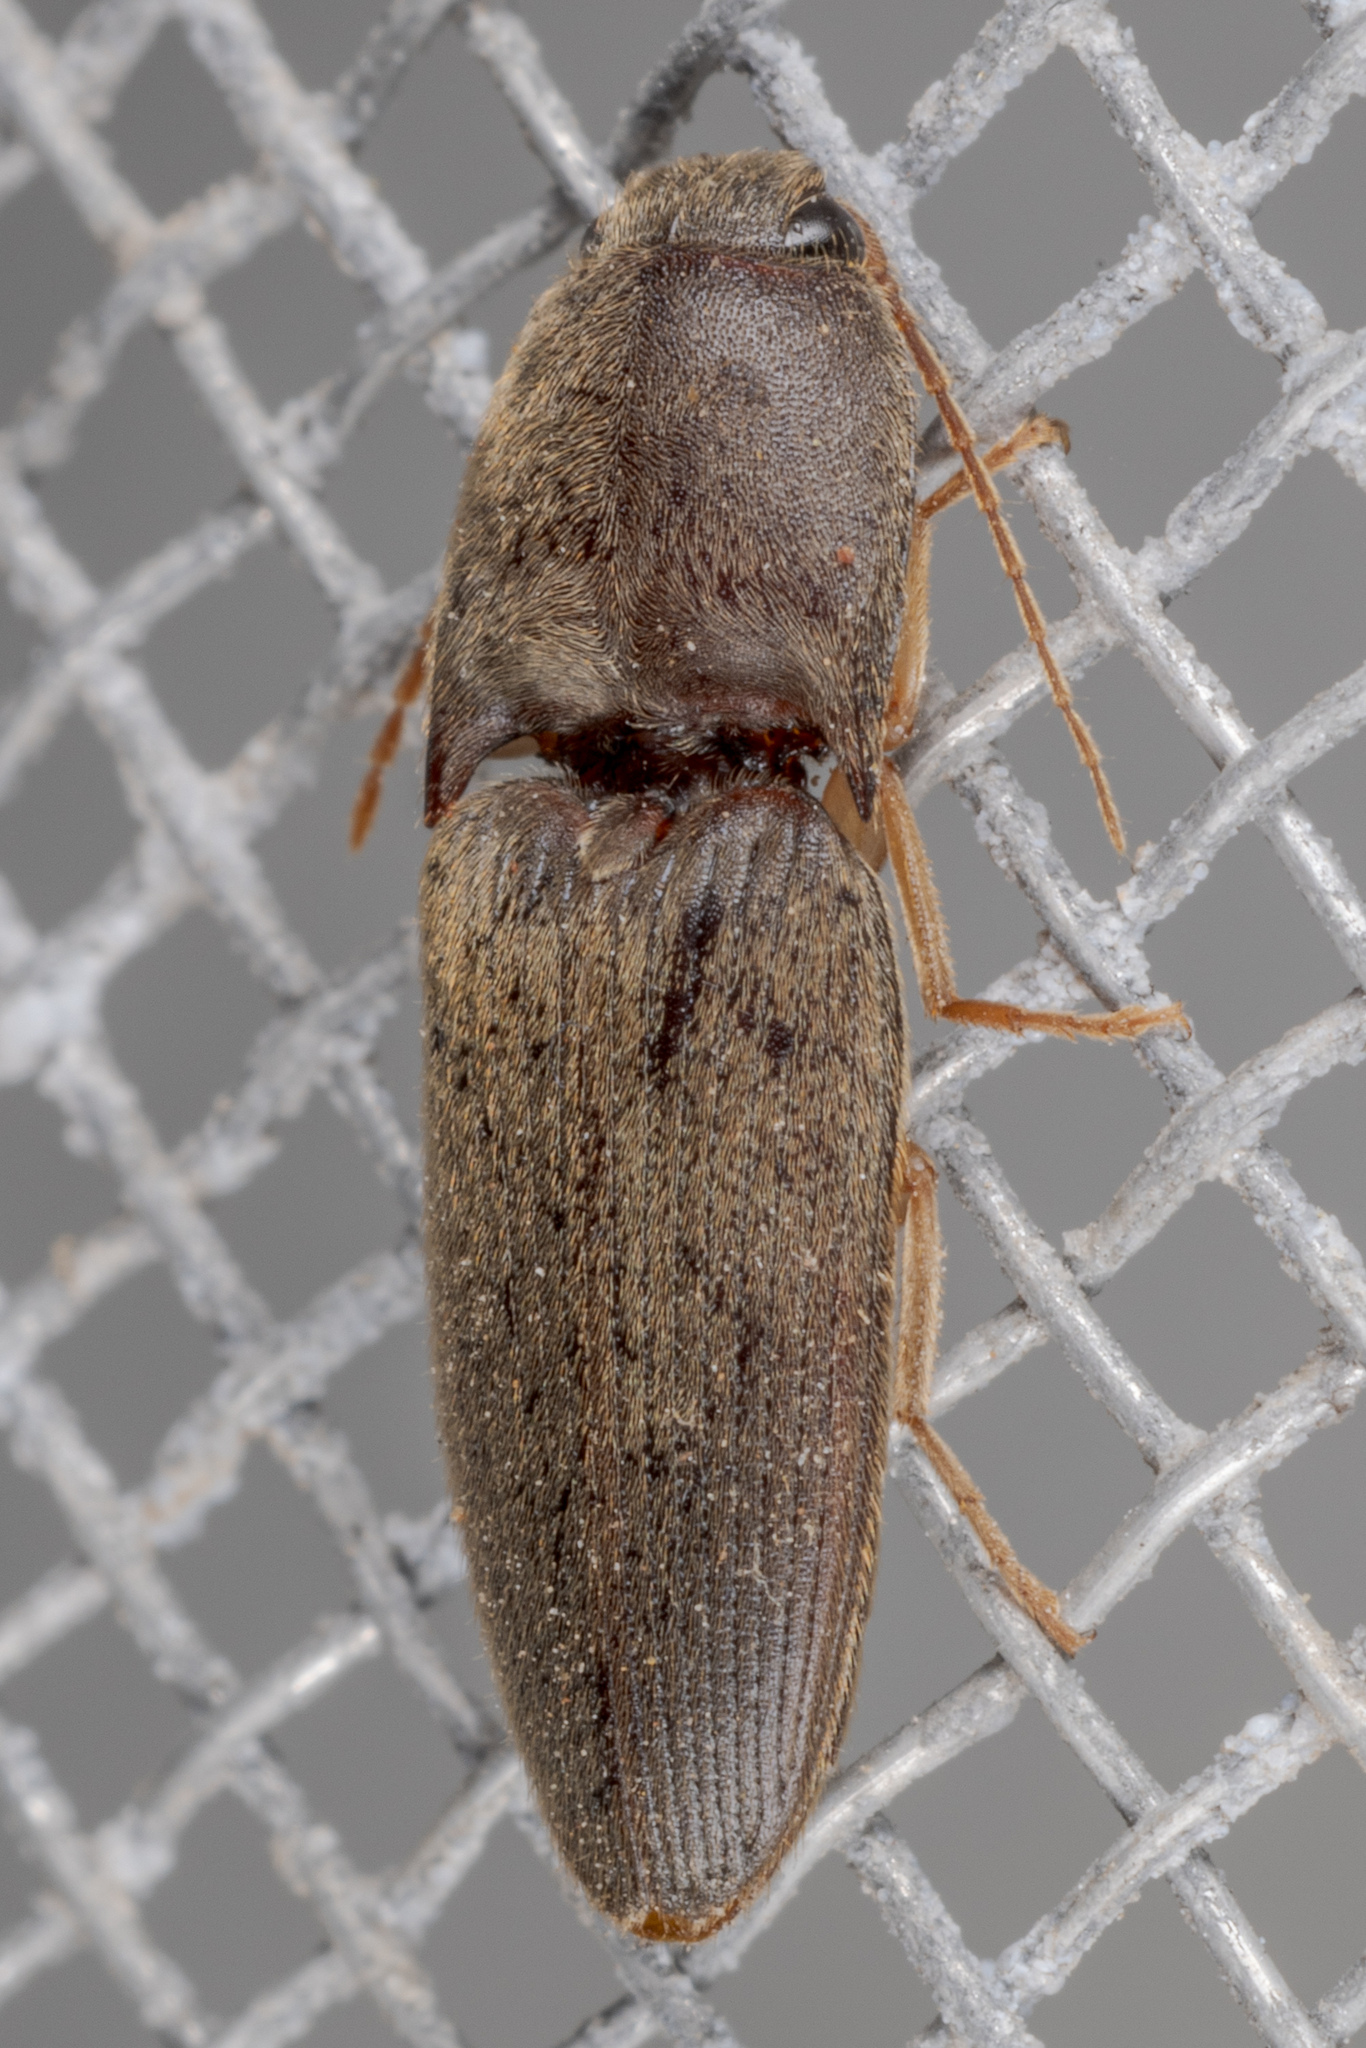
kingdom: Animalia
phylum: Arthropoda
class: Insecta
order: Coleoptera
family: Elateridae
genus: Conoderus
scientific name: Conoderus exsul
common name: Click beetle
